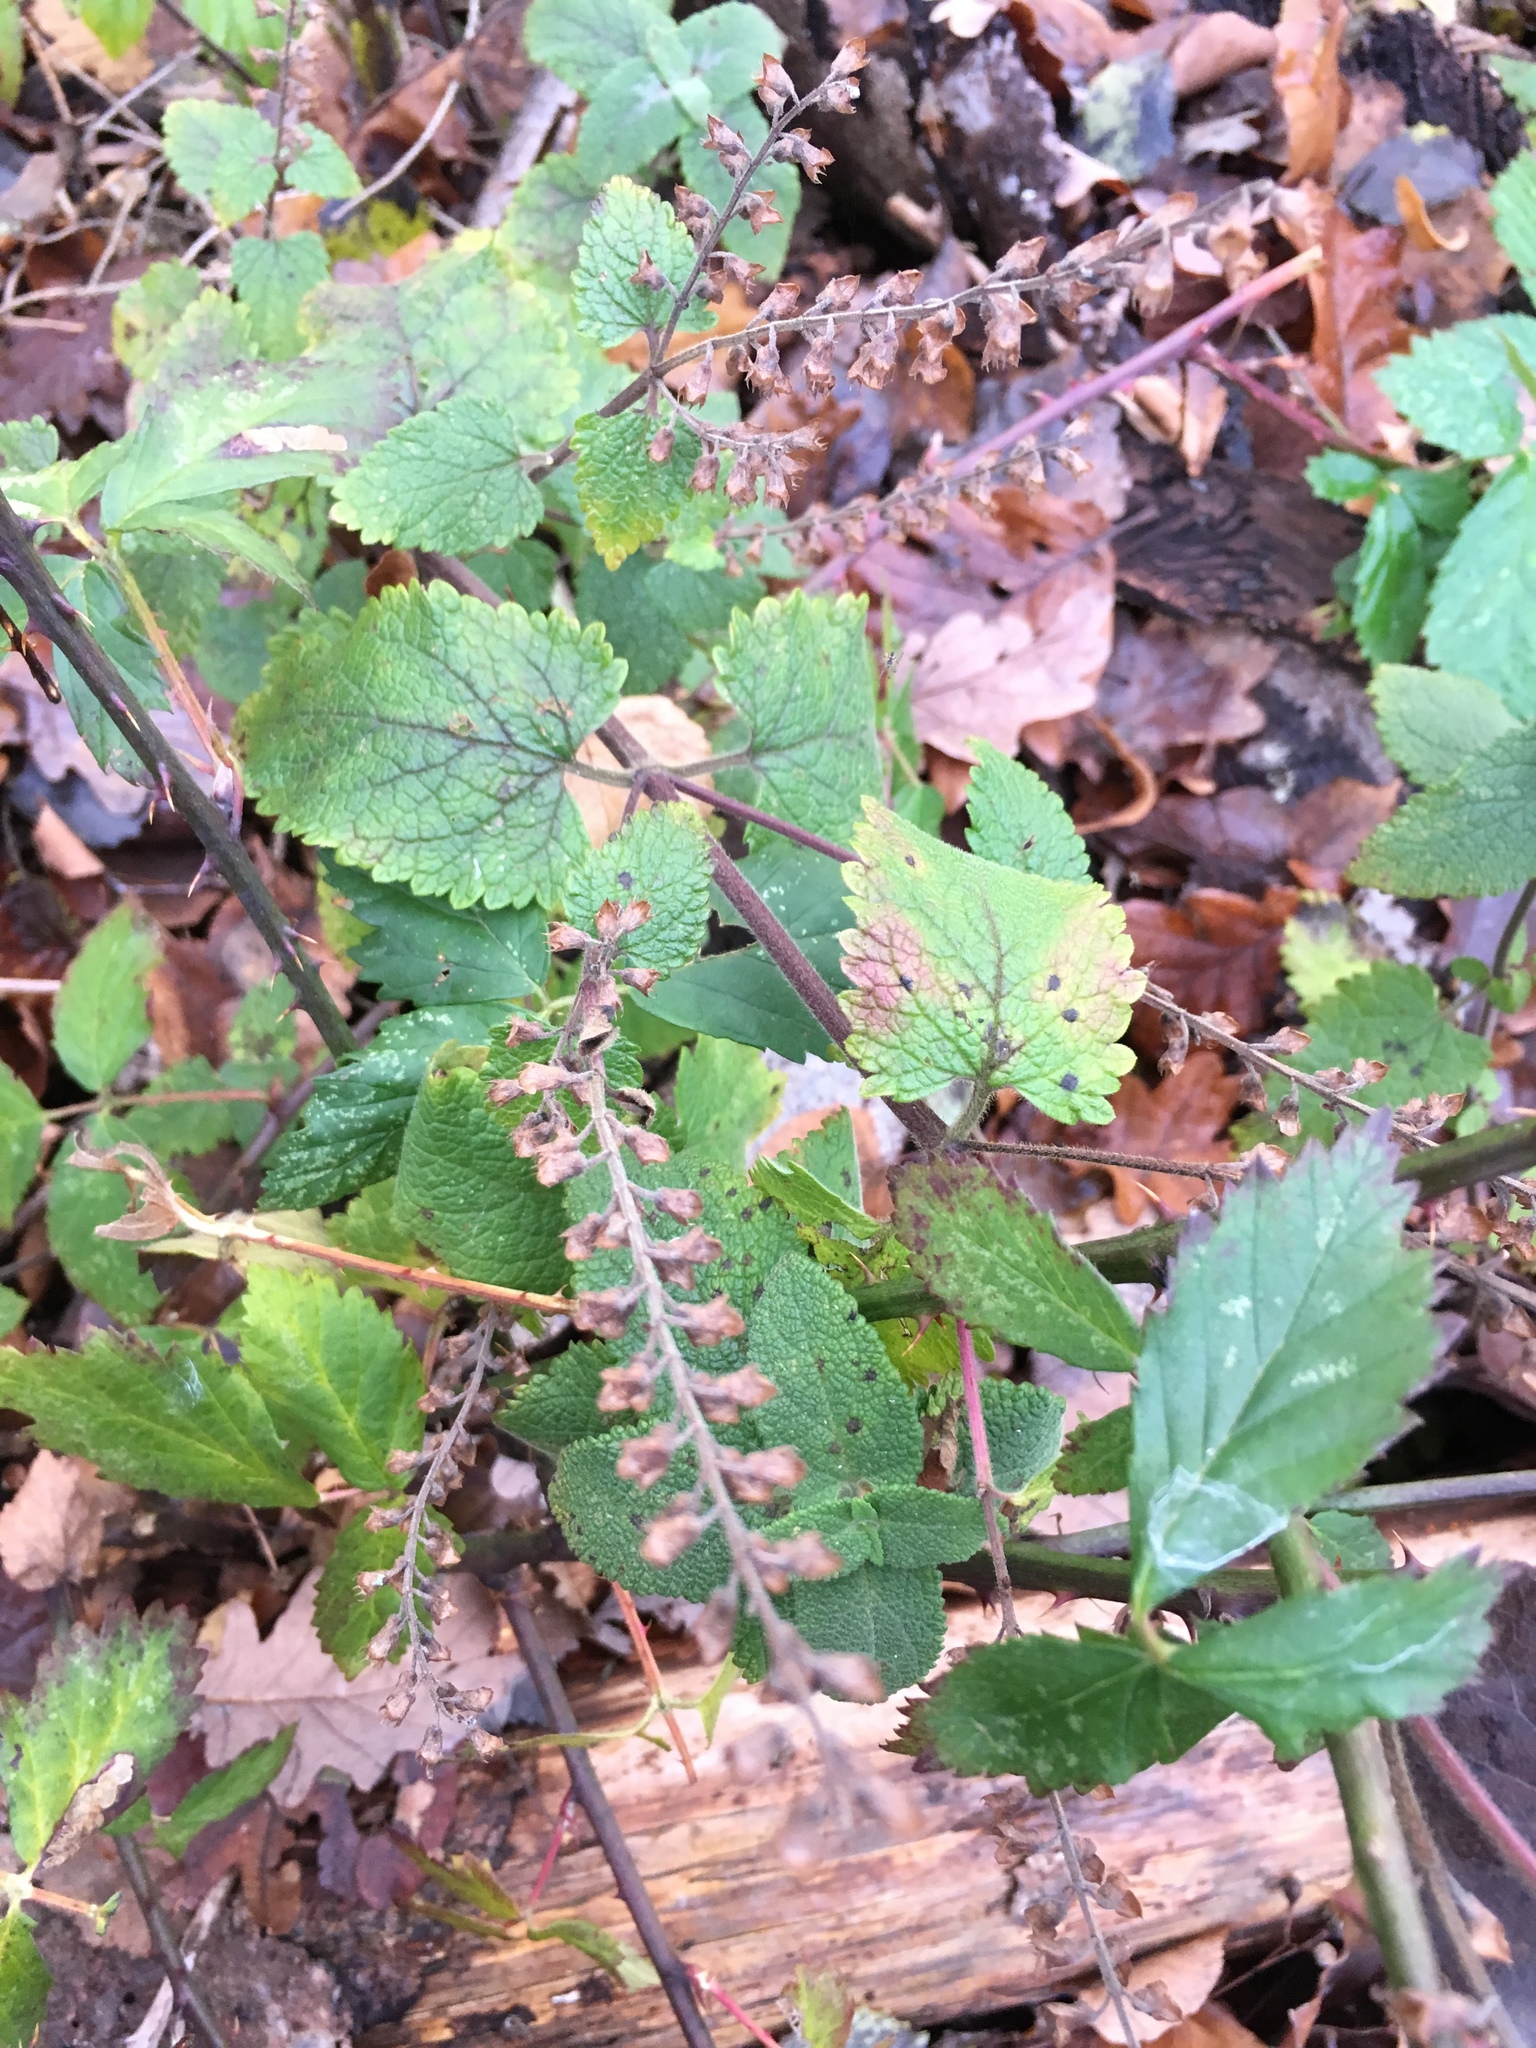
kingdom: Plantae
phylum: Tracheophyta
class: Magnoliopsida
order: Lamiales
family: Lamiaceae
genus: Teucrium
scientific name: Teucrium scorodonia
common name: Woodland germander
